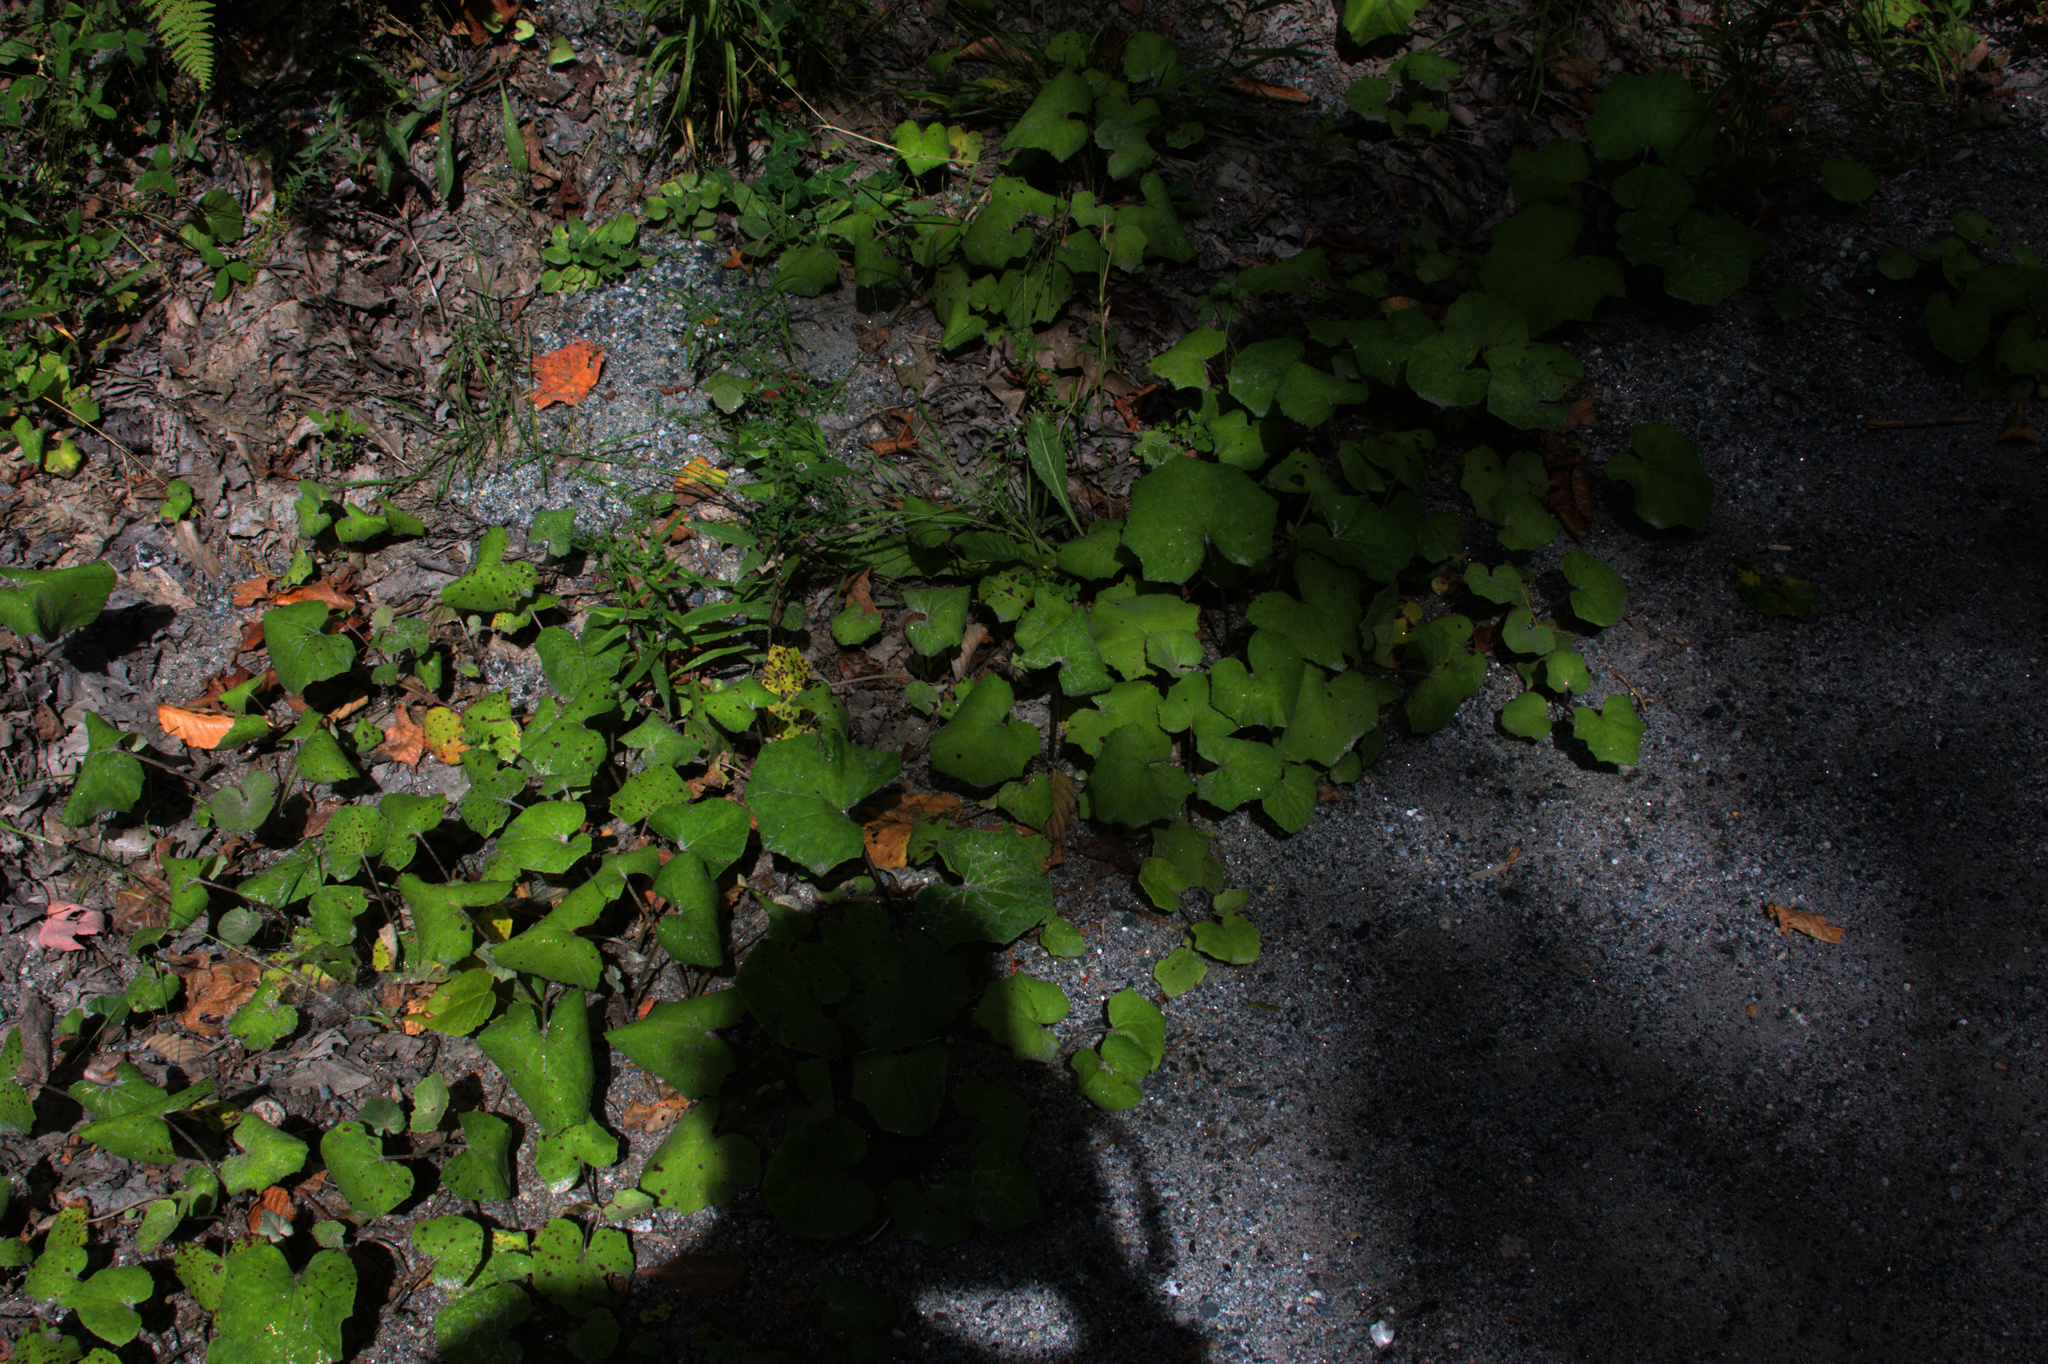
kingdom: Plantae
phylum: Tracheophyta
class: Magnoliopsida
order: Asterales
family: Asteraceae
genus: Tussilago
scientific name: Tussilago farfara
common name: Coltsfoot
